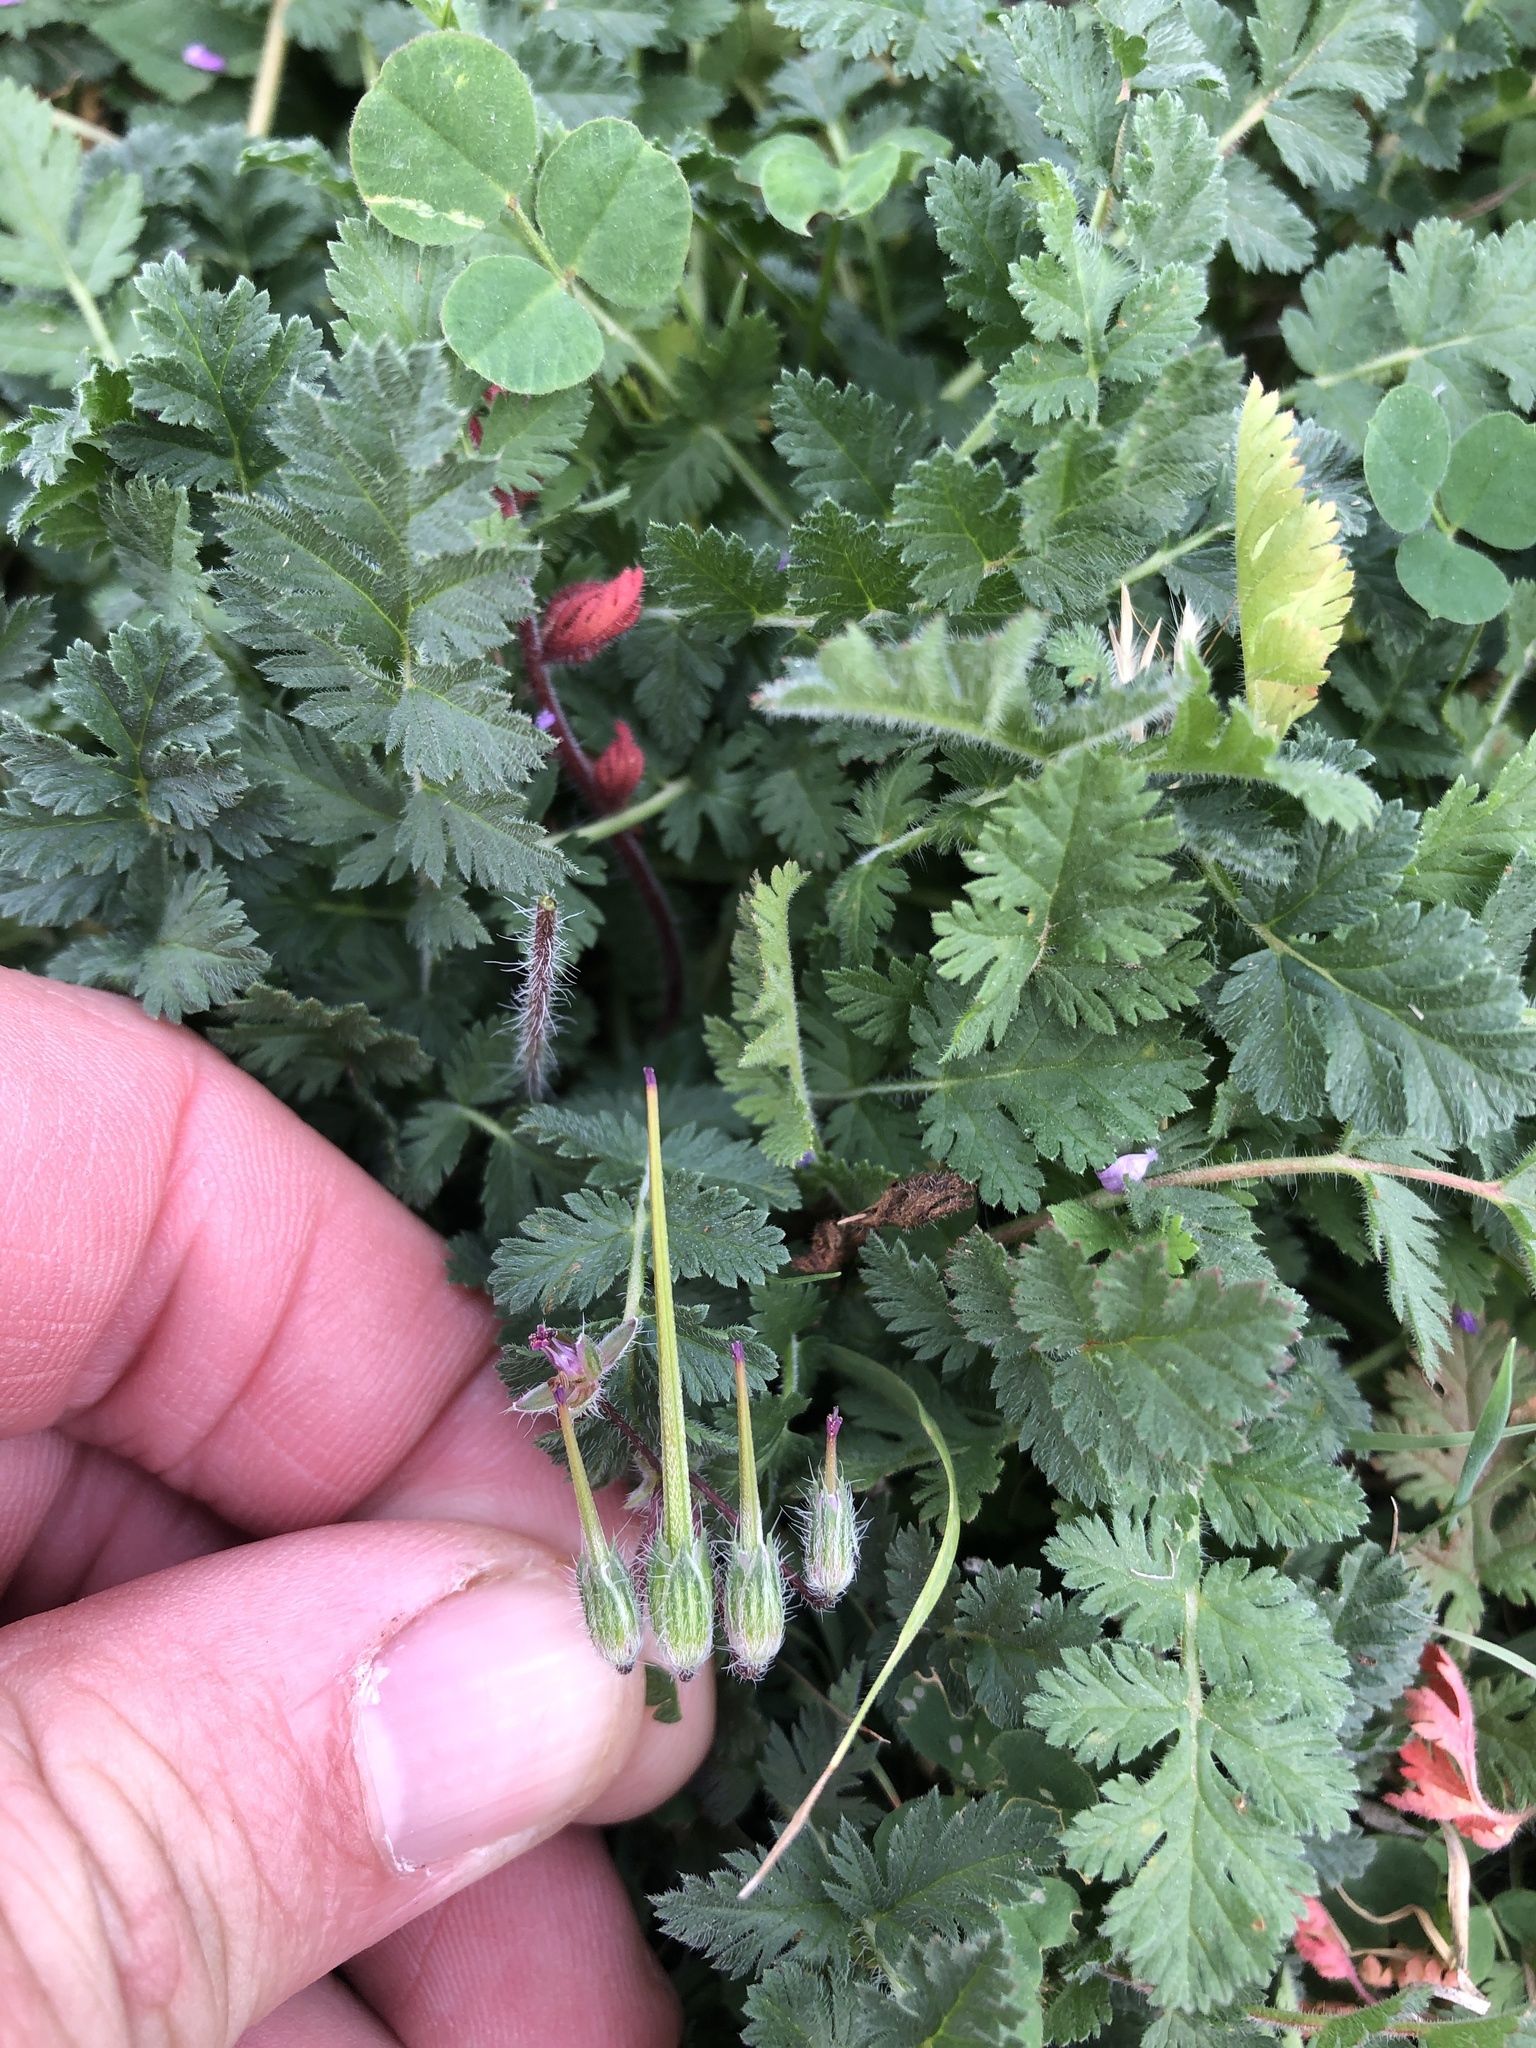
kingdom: Plantae
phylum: Tracheophyta
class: Magnoliopsida
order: Geraniales
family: Geraniaceae
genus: Erodium
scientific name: Erodium cicutarium
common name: Common stork's-bill
